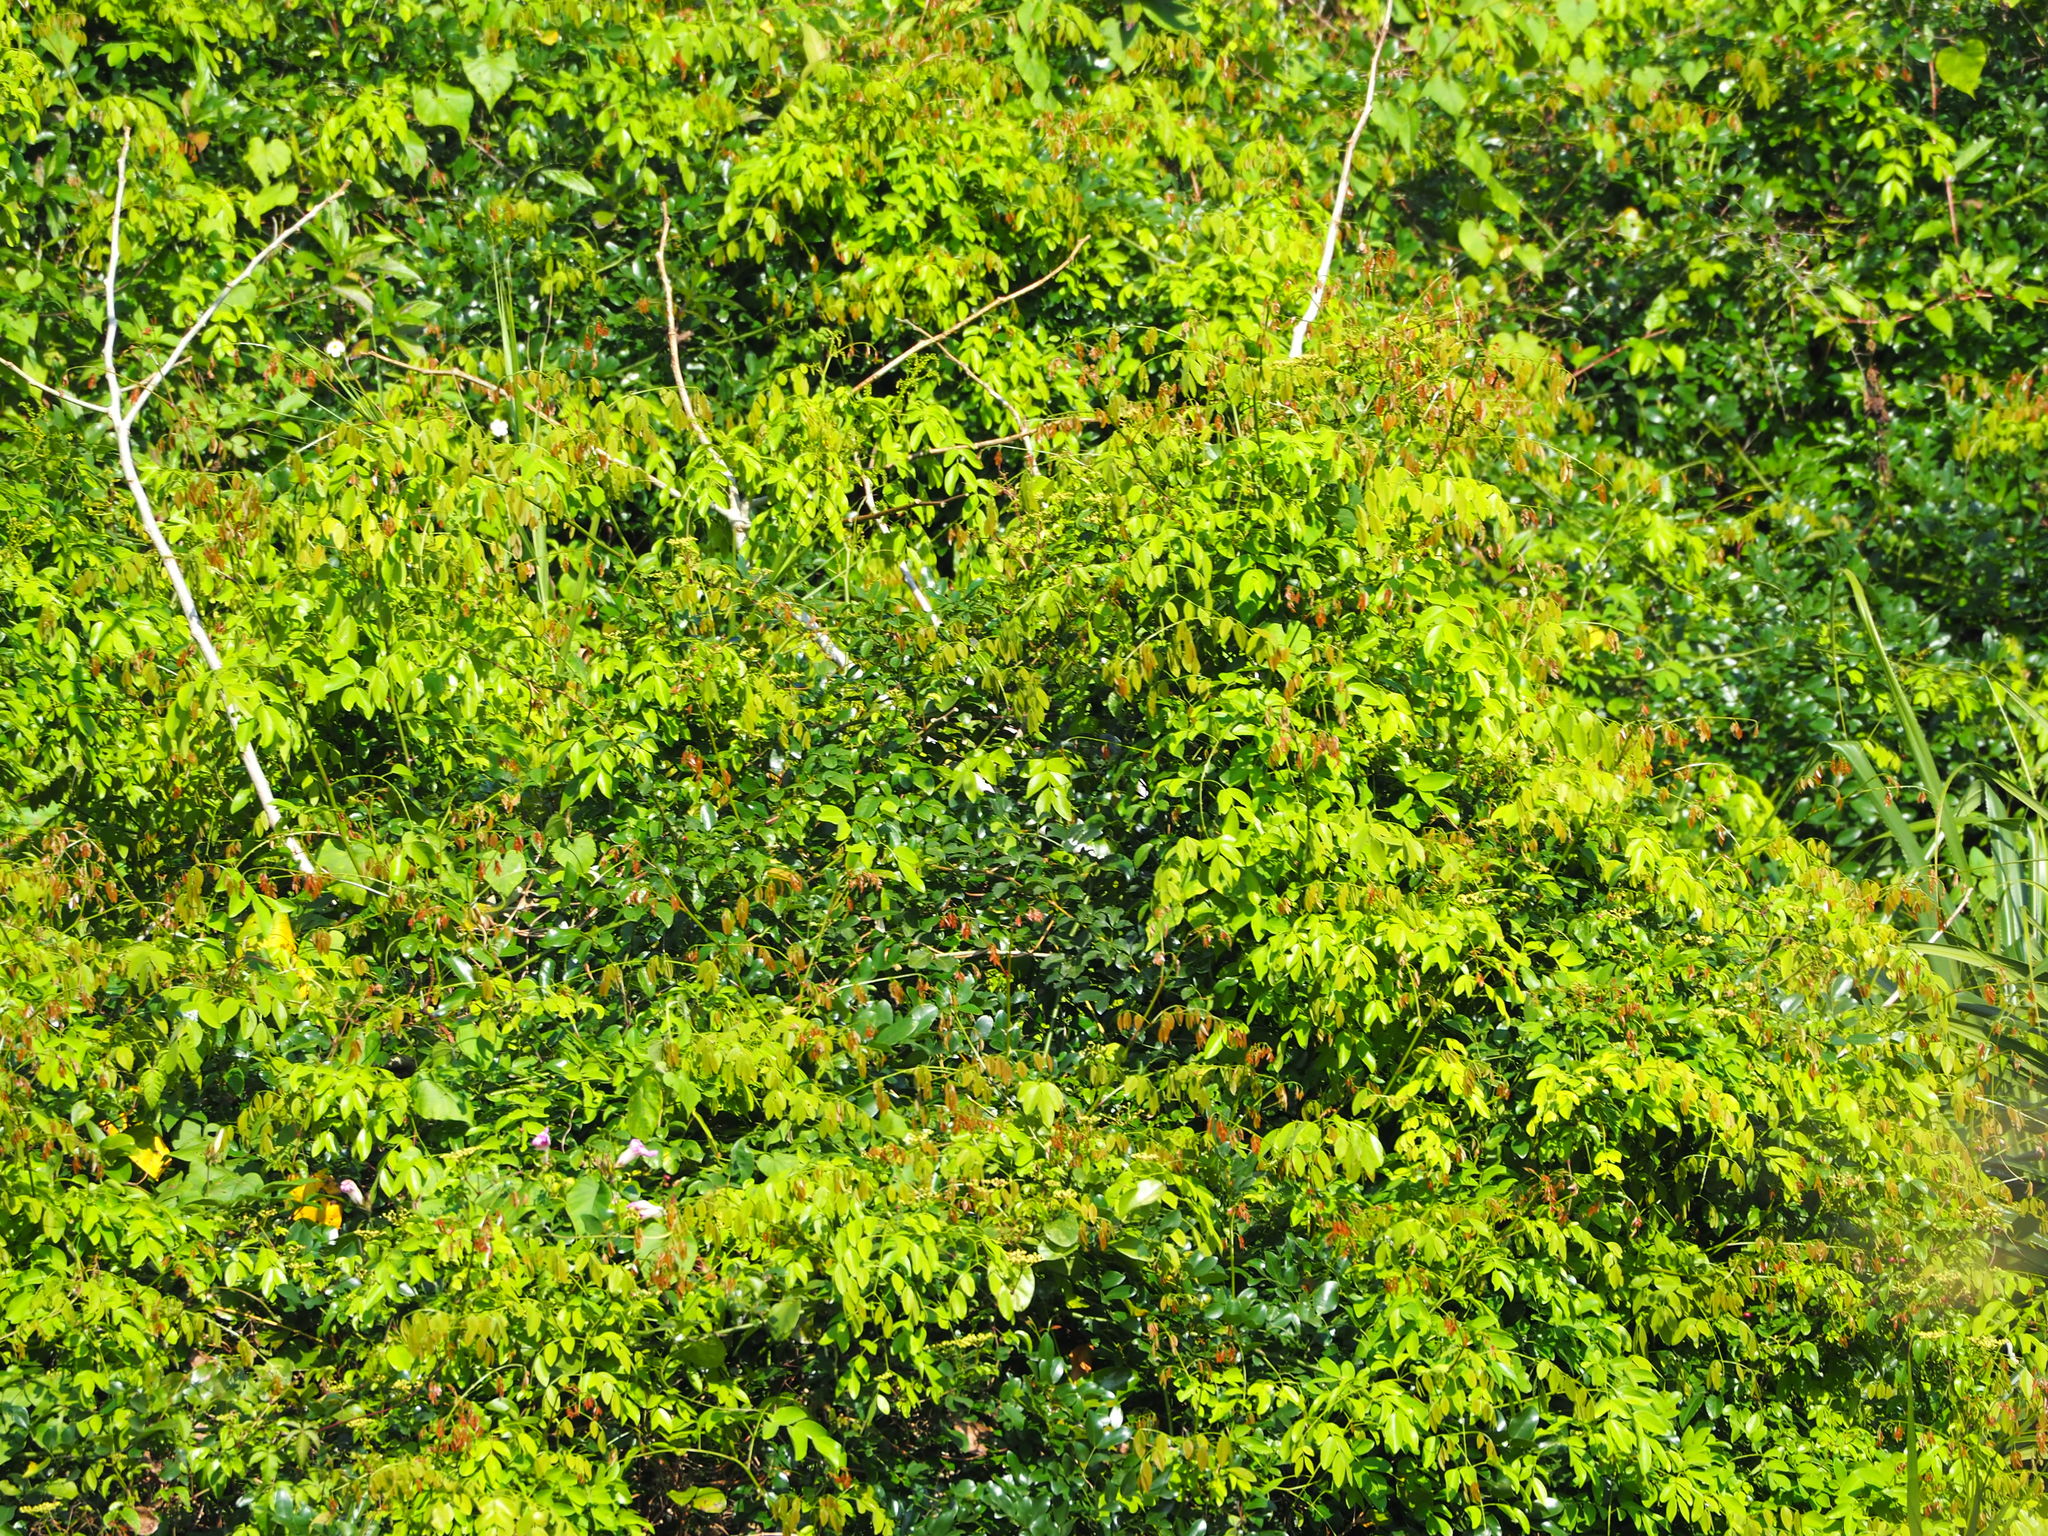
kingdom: Plantae
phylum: Tracheophyta
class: Magnoliopsida
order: Fabales
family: Fabaceae
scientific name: Fabaceae
